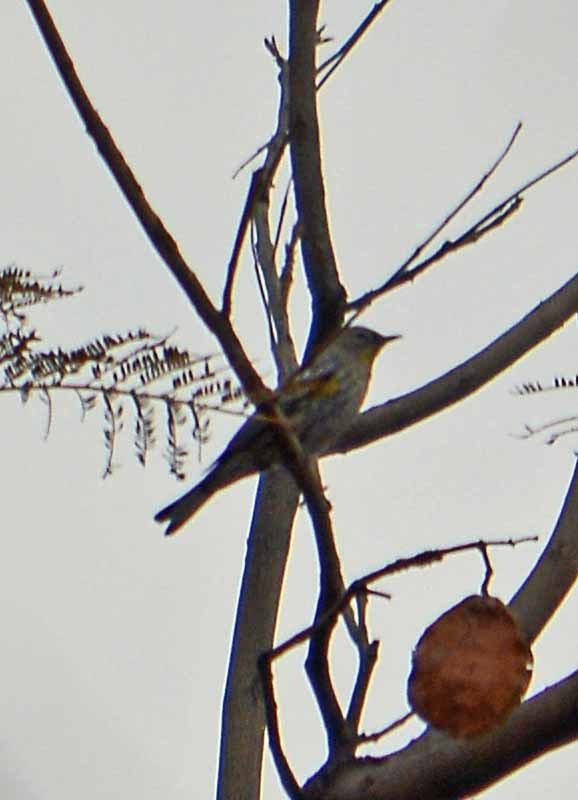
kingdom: Animalia
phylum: Chordata
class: Aves
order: Passeriformes
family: Parulidae
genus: Setophaga
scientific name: Setophaga coronata
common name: Myrtle warbler
